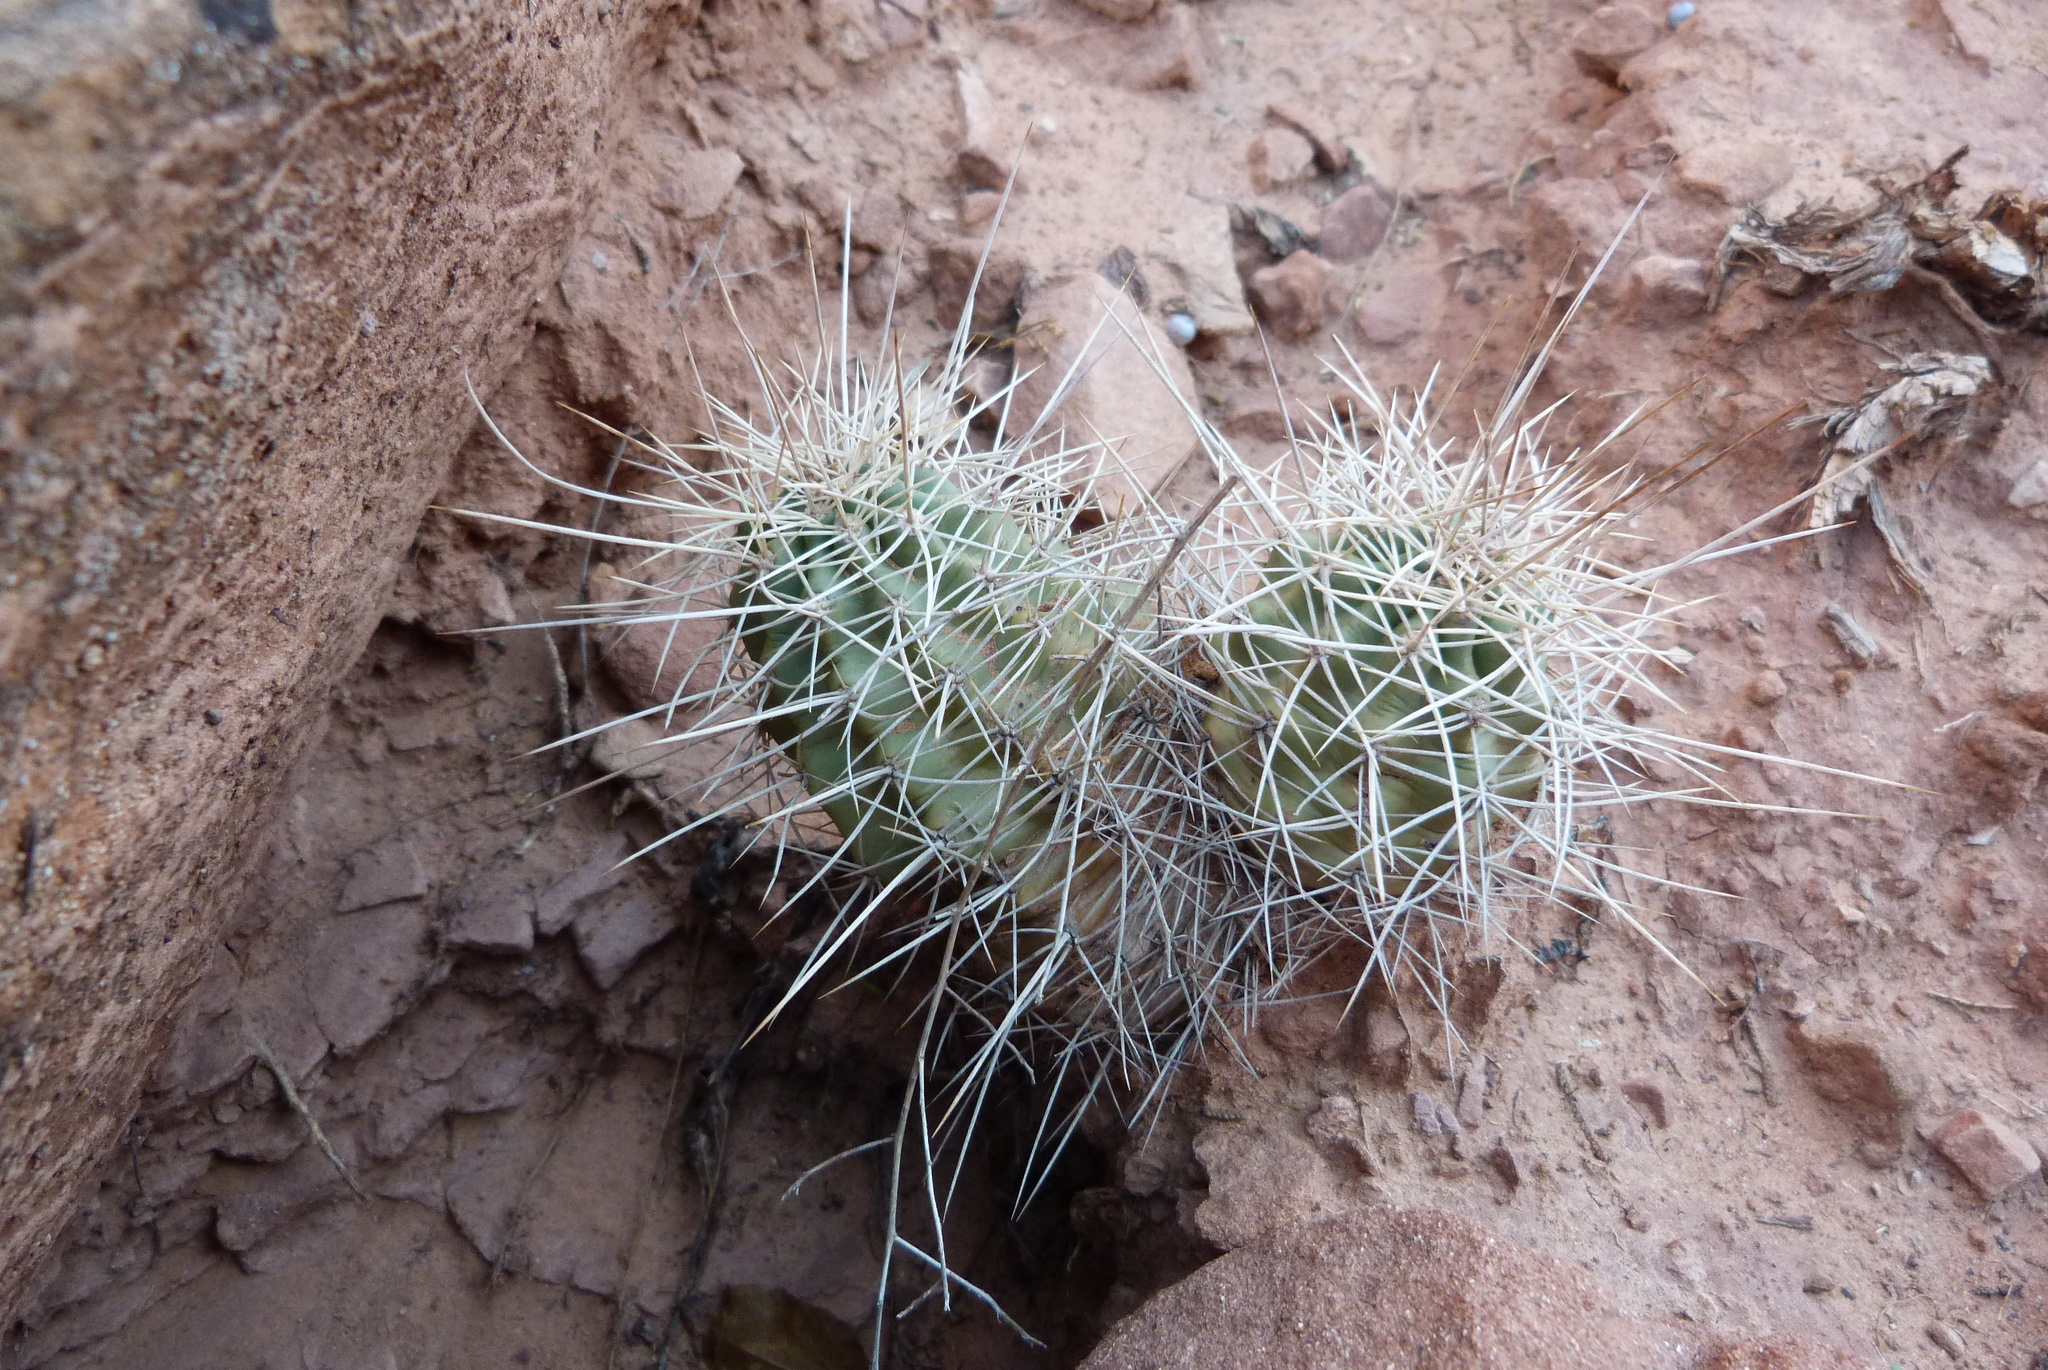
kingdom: Plantae
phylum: Tracheophyta
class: Magnoliopsida
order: Caryophyllales
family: Cactaceae
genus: Echinocereus
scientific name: Echinocereus triglochidiatus
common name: Claretcup hedgehog
